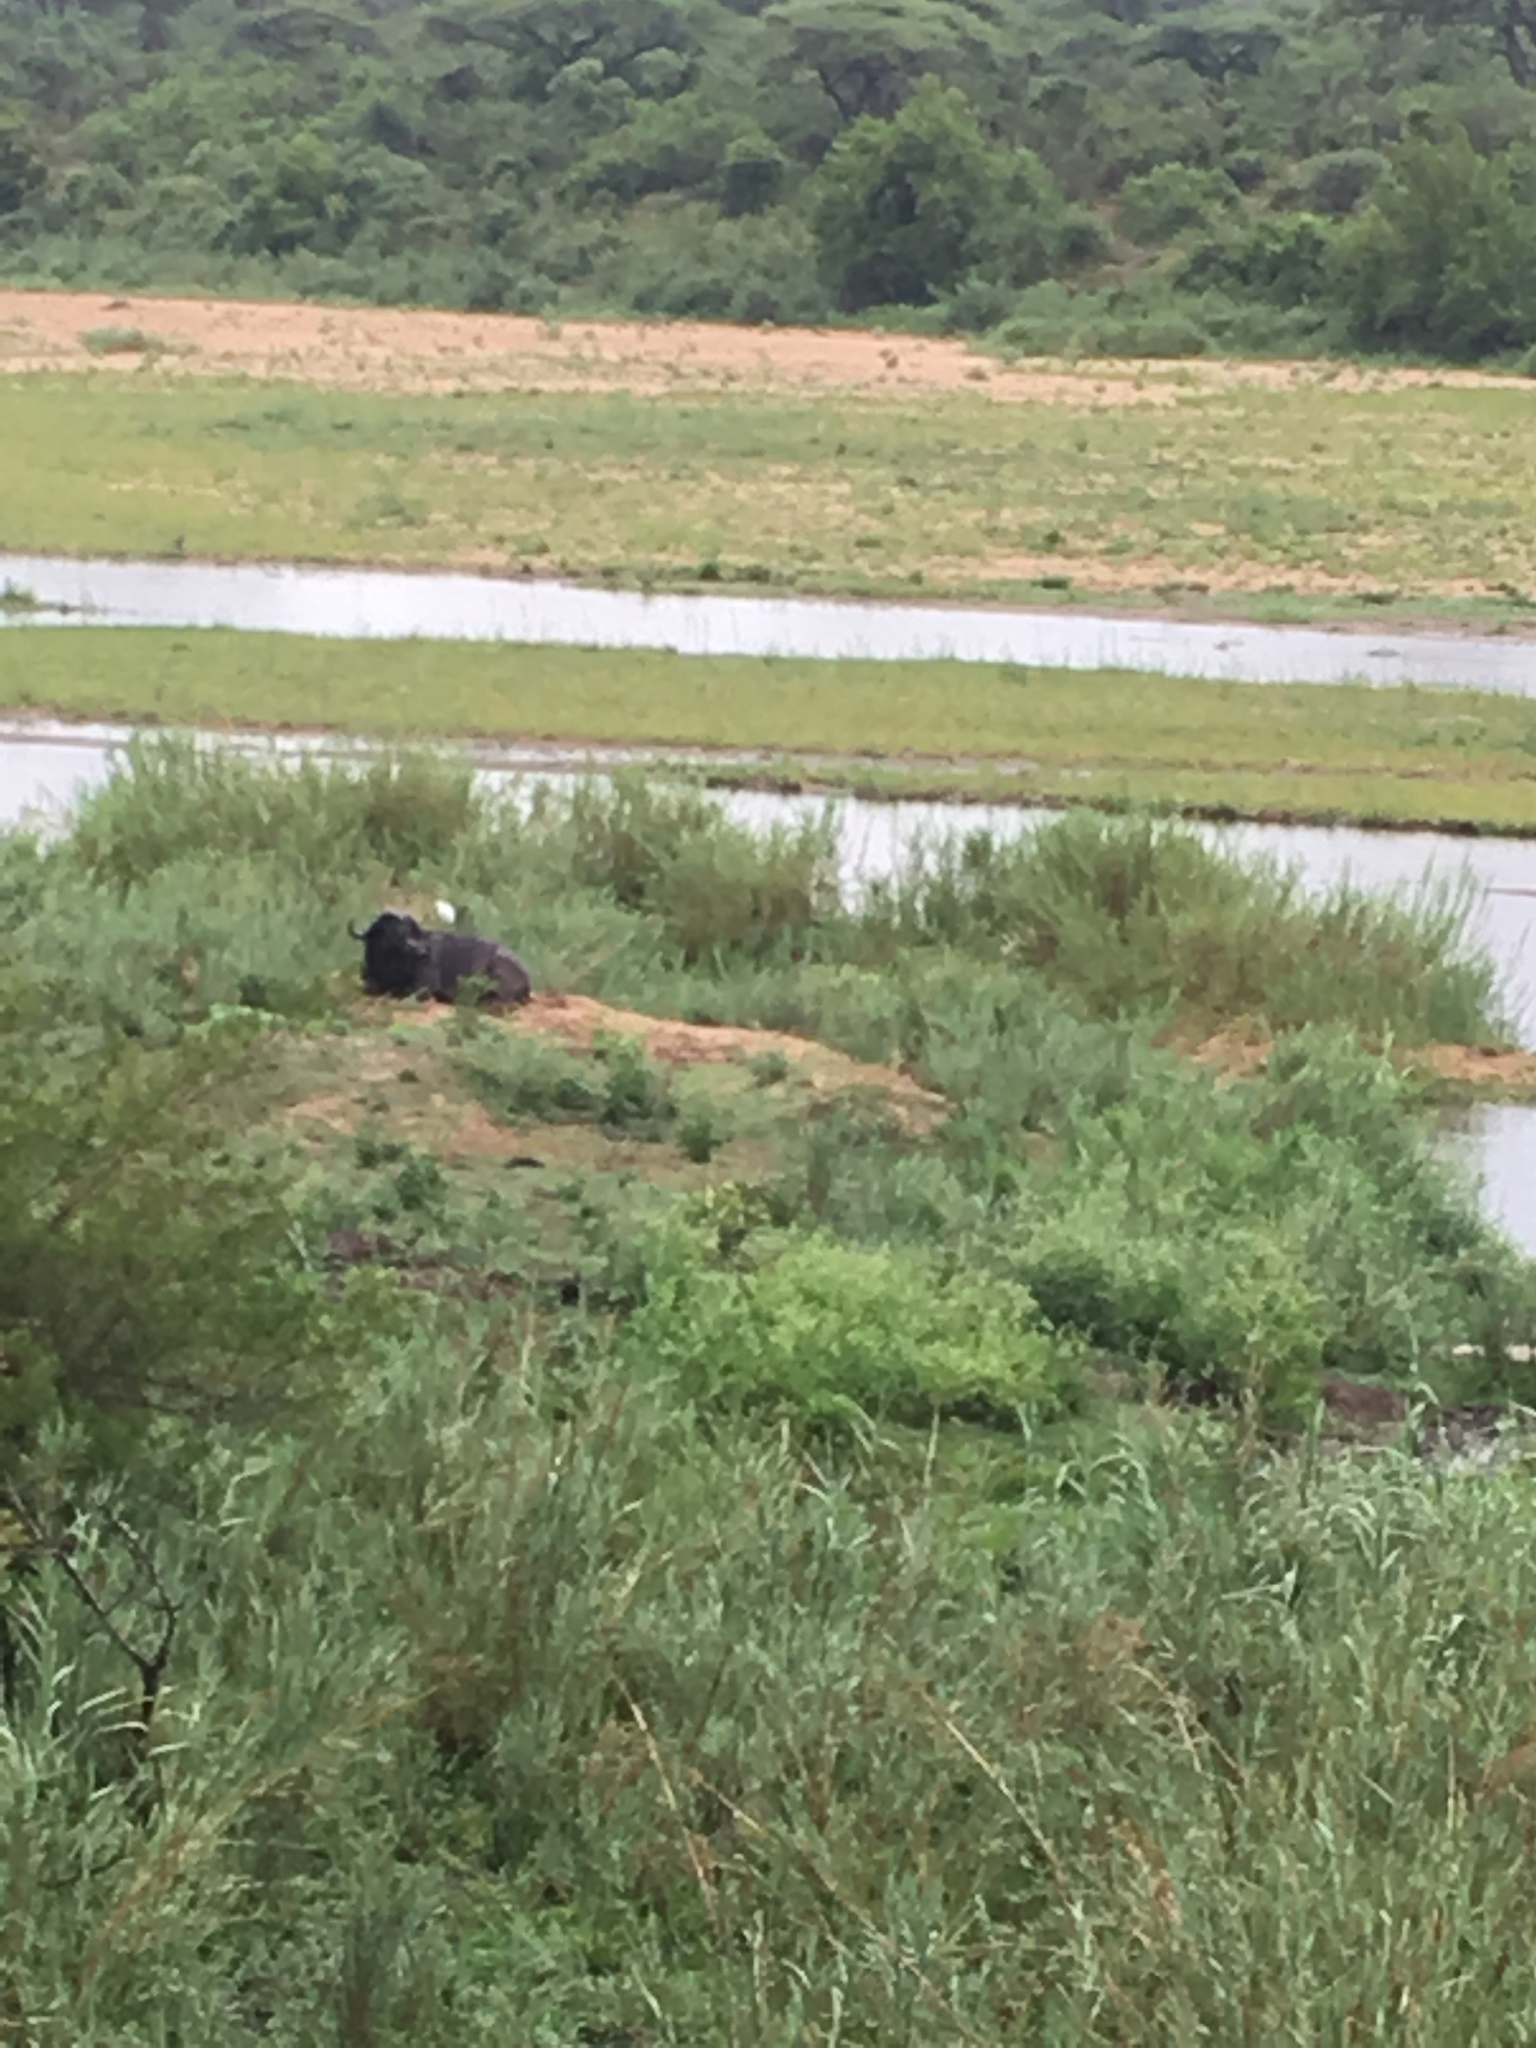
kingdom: Animalia
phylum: Chordata
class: Mammalia
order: Artiodactyla
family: Bovidae
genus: Syncerus
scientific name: Syncerus caffer
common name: African buffalo
